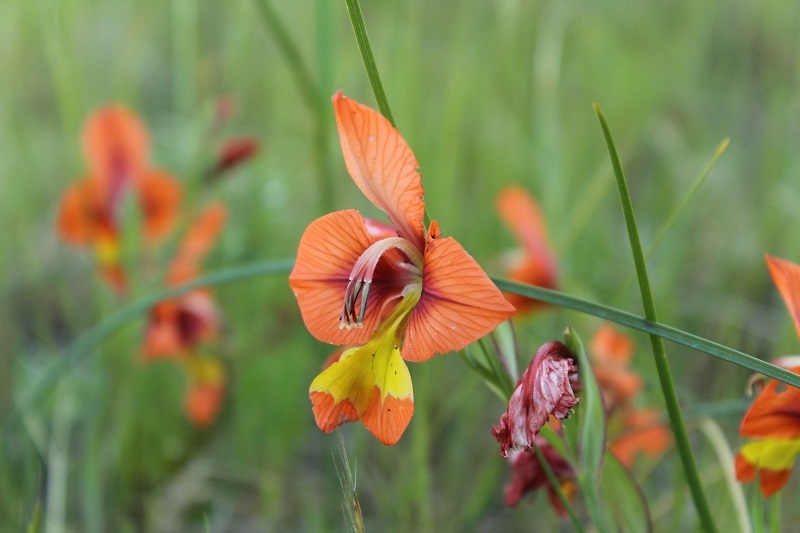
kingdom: Plantae
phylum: Tracheophyta
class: Liliopsida
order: Asparagales
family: Iridaceae
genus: Gladiolus
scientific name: Gladiolus alatus
